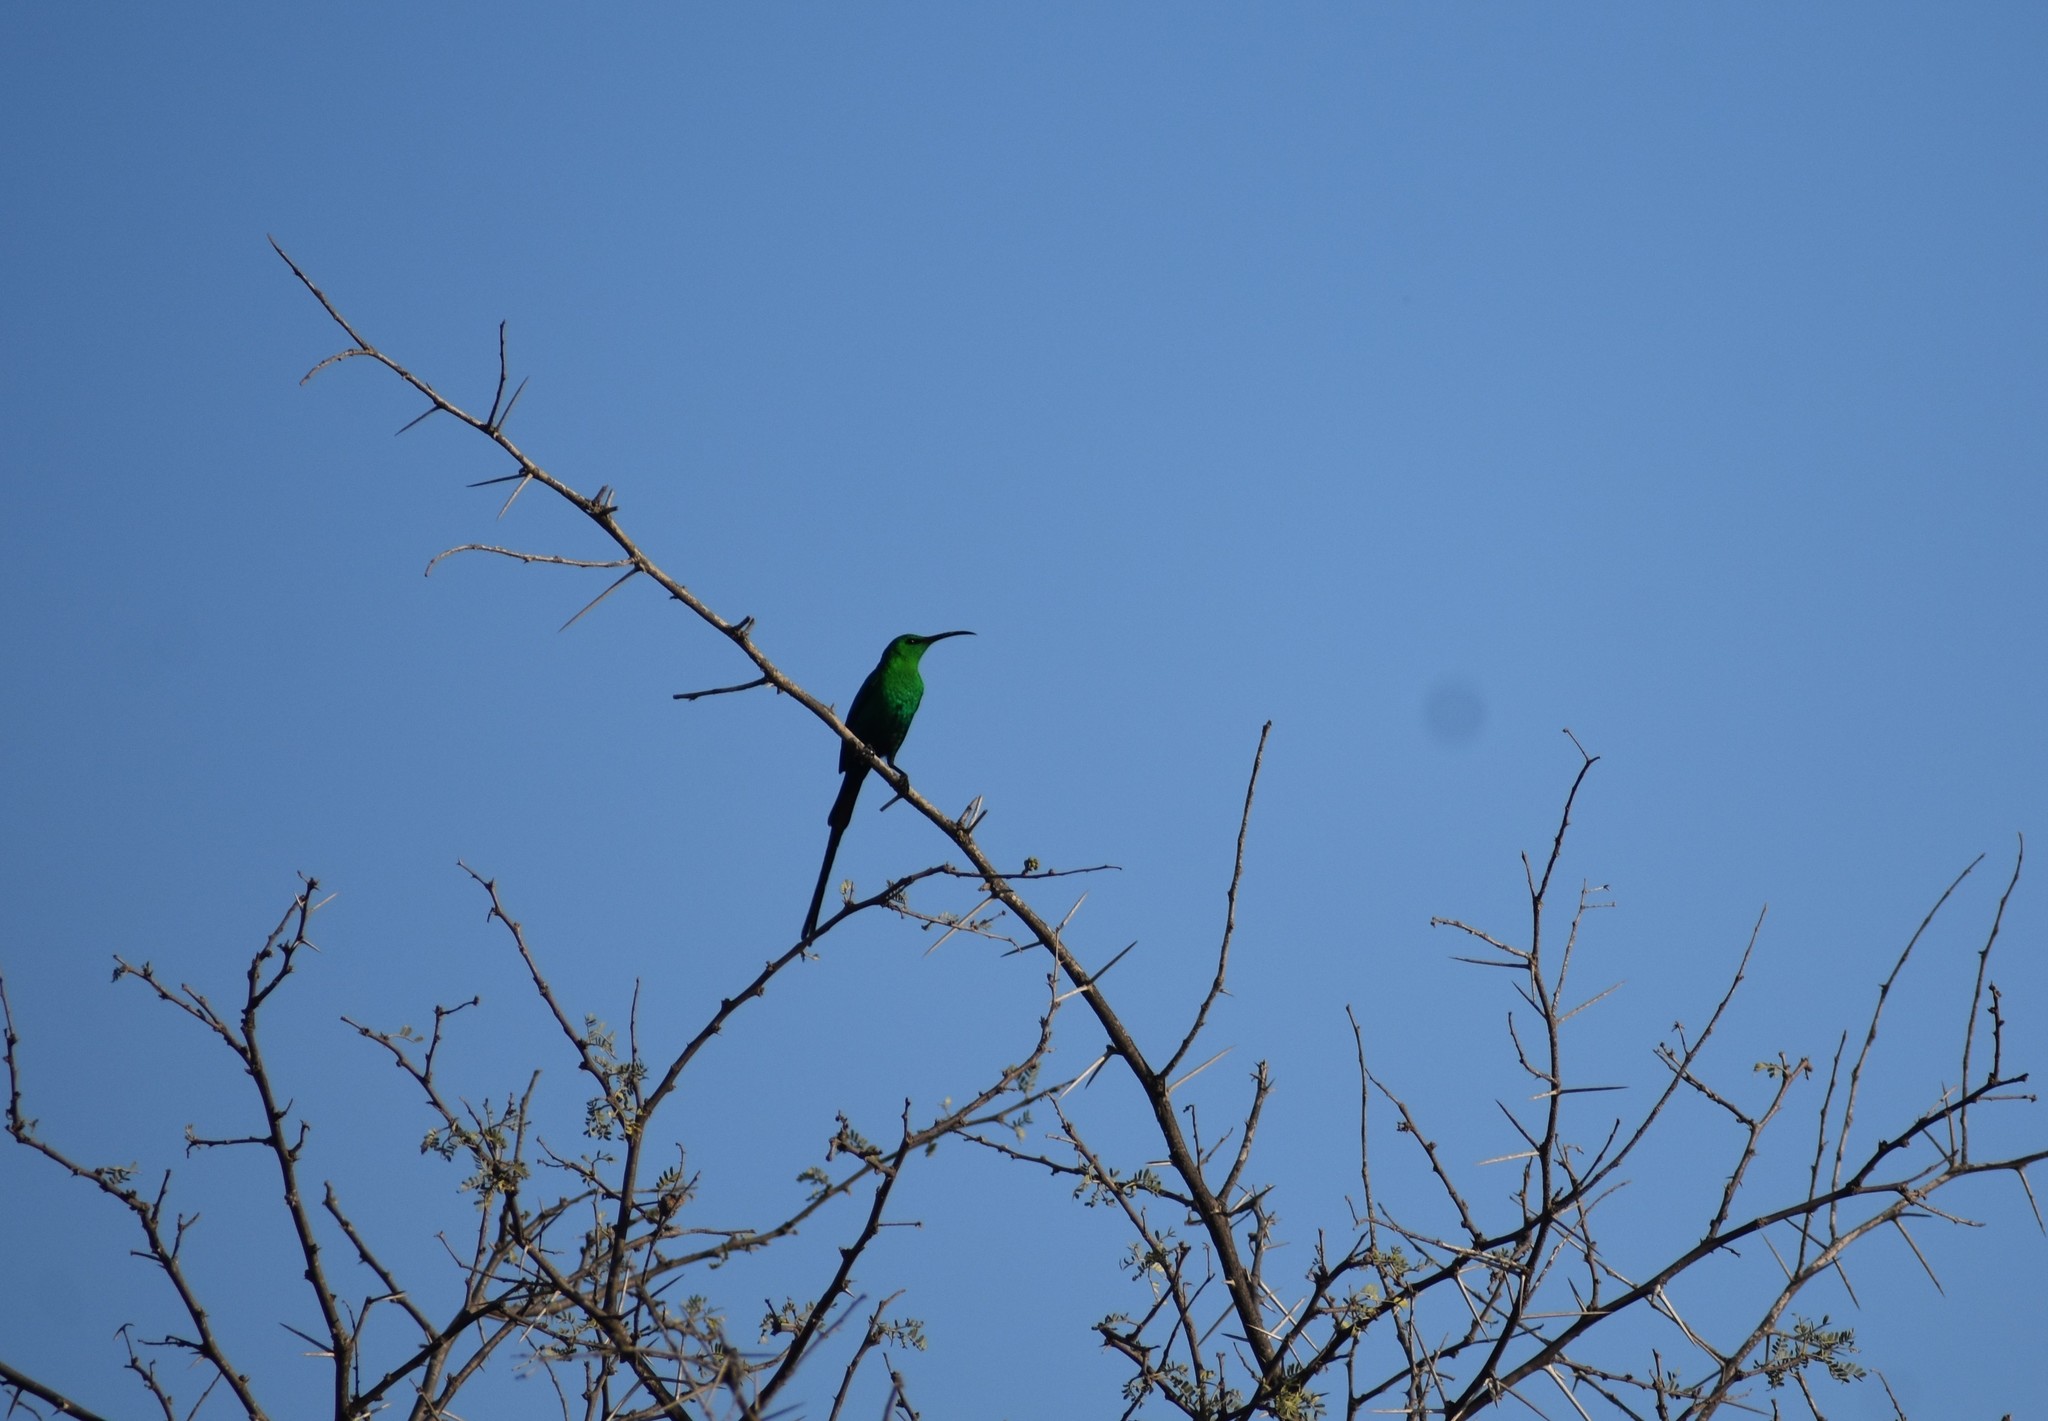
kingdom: Animalia
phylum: Chordata
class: Aves
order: Passeriformes
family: Nectariniidae
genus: Nectarinia
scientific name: Nectarinia famosa
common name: Malachite sunbird
